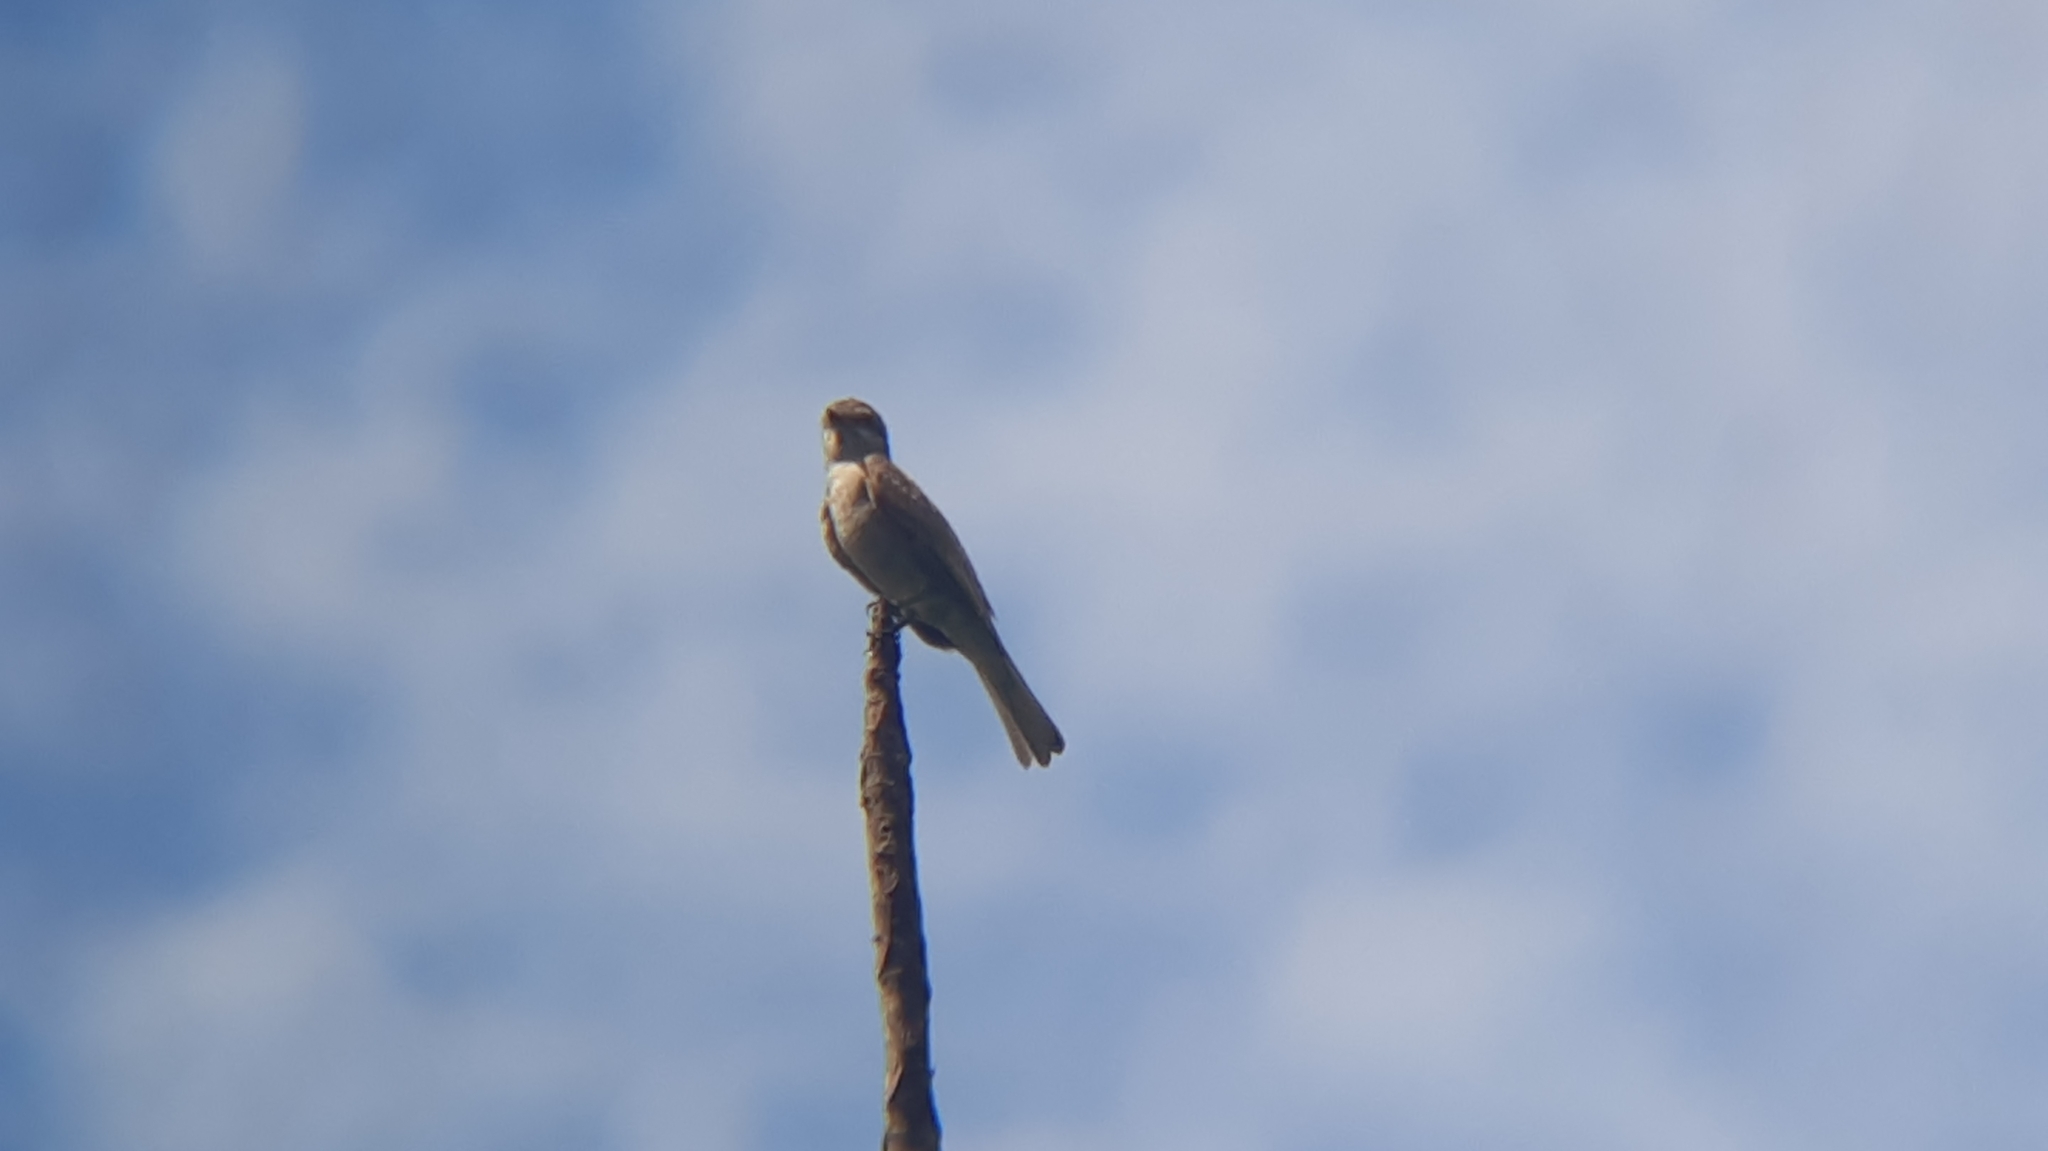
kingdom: Animalia
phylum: Chordata
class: Aves
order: Passeriformes
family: Tyrannidae
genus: Empidonomus
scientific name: Empidonomus aurantioatrocristatus
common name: Crowned slaty flycatcher
